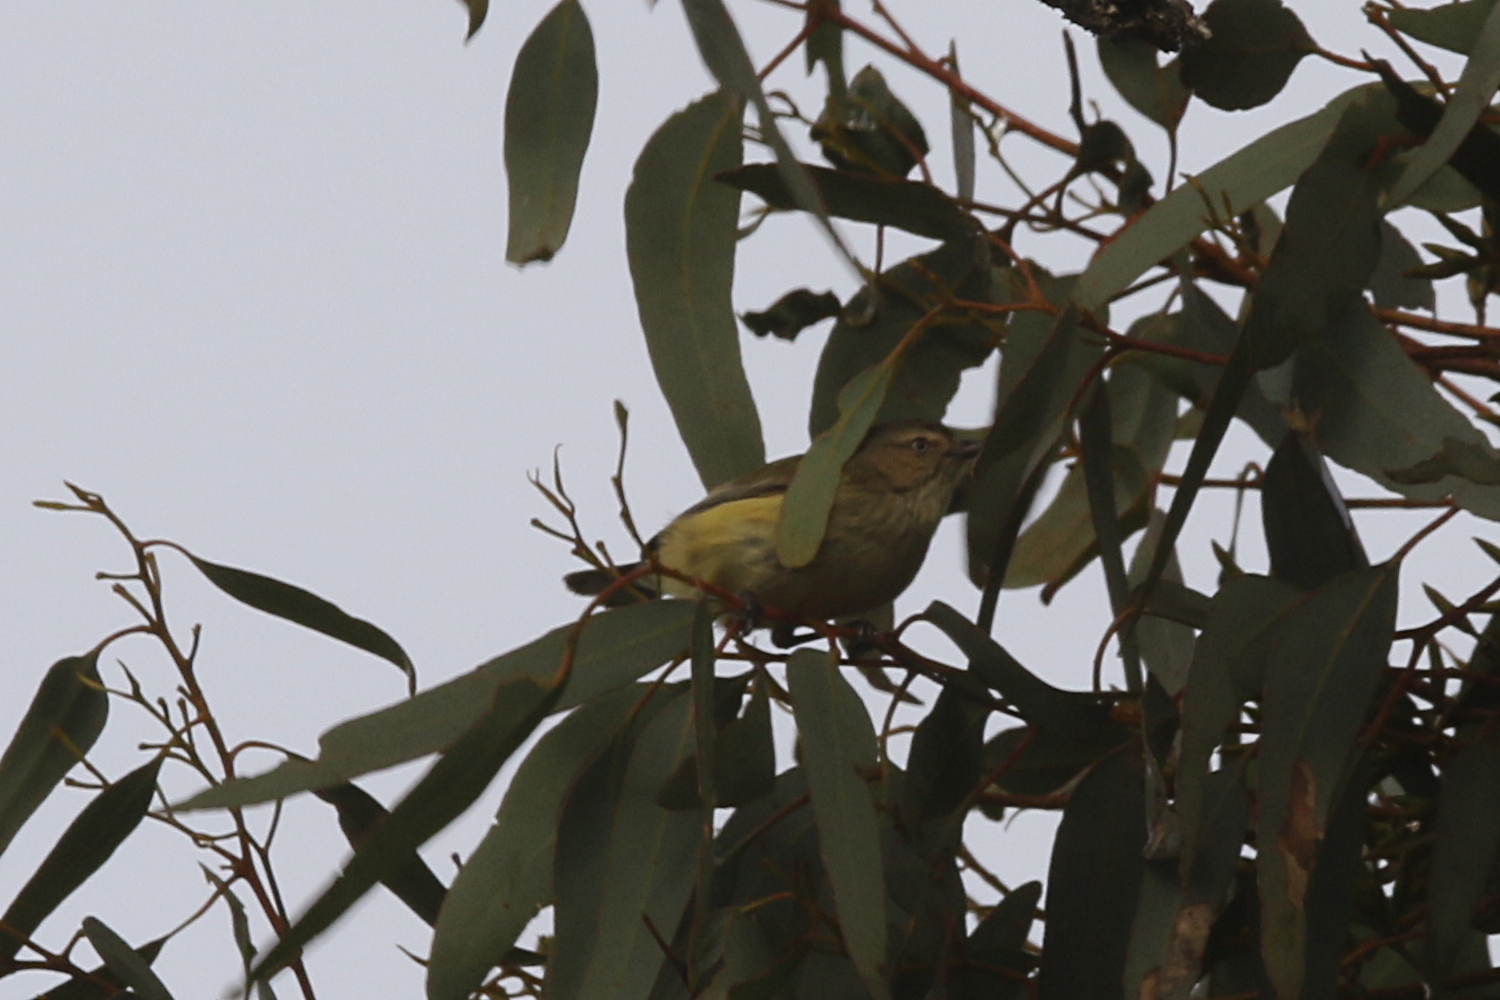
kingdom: Animalia
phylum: Chordata
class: Aves
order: Passeriformes
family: Acanthizidae
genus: Smicrornis
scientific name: Smicrornis brevirostris
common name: Weebill
